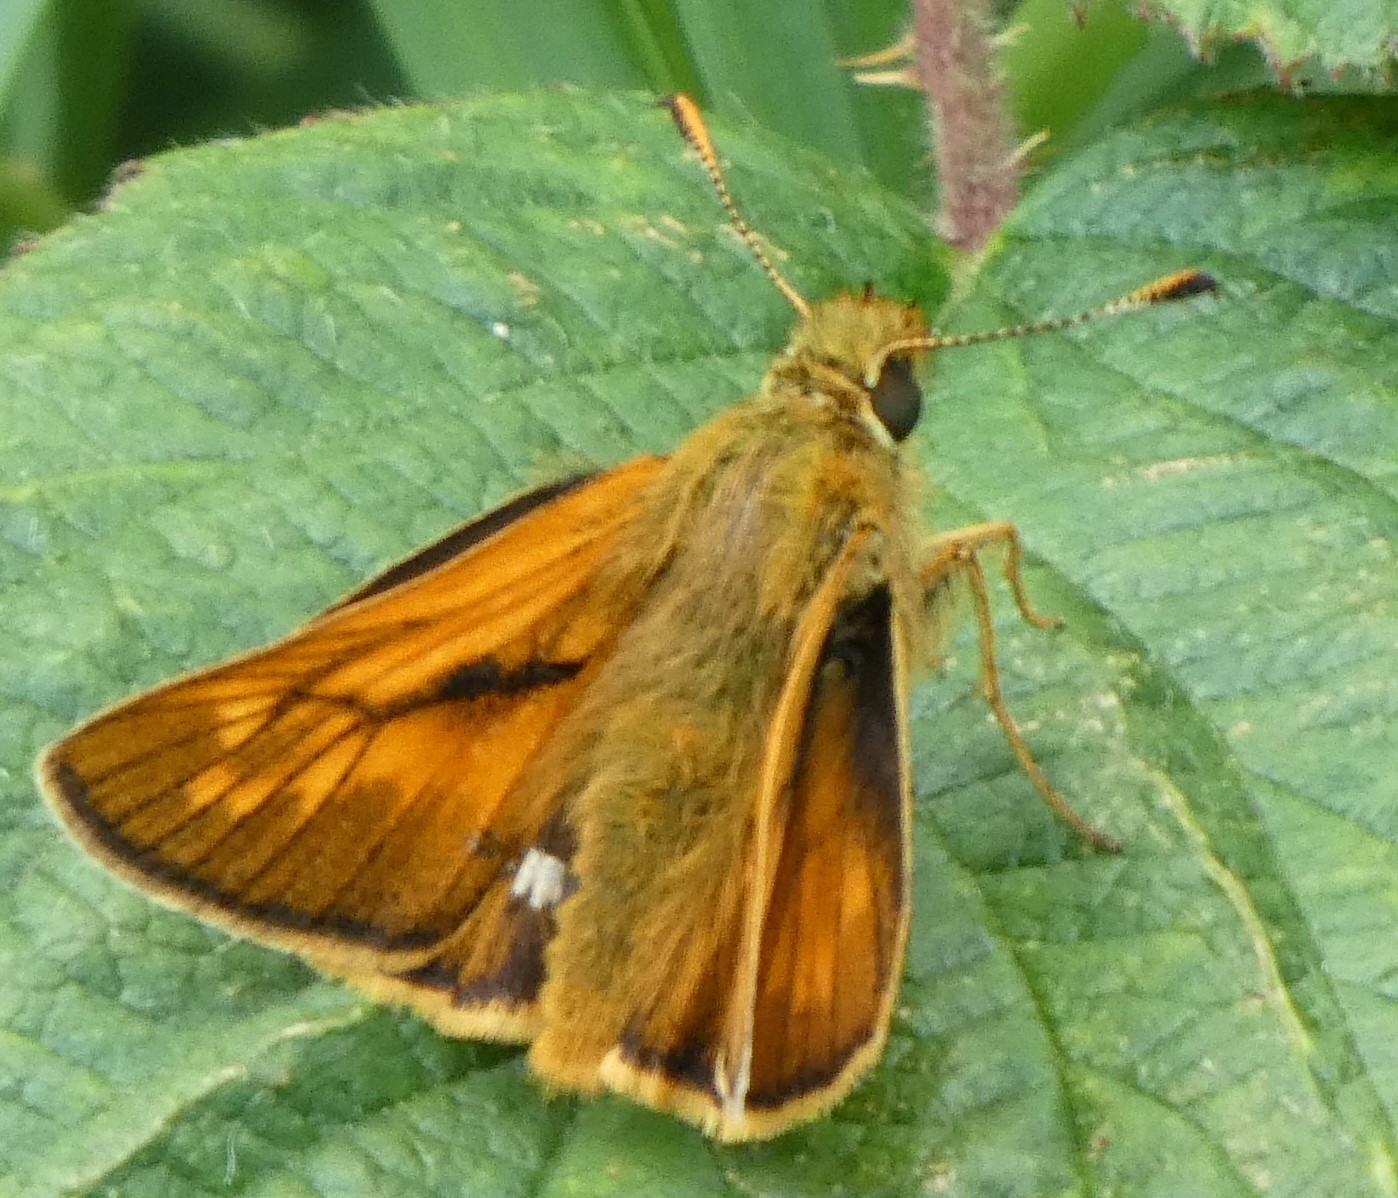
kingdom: Animalia
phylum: Arthropoda
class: Insecta
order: Lepidoptera
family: Hesperiidae
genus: Ochlodes
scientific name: Ochlodes venata
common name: Large skipper
